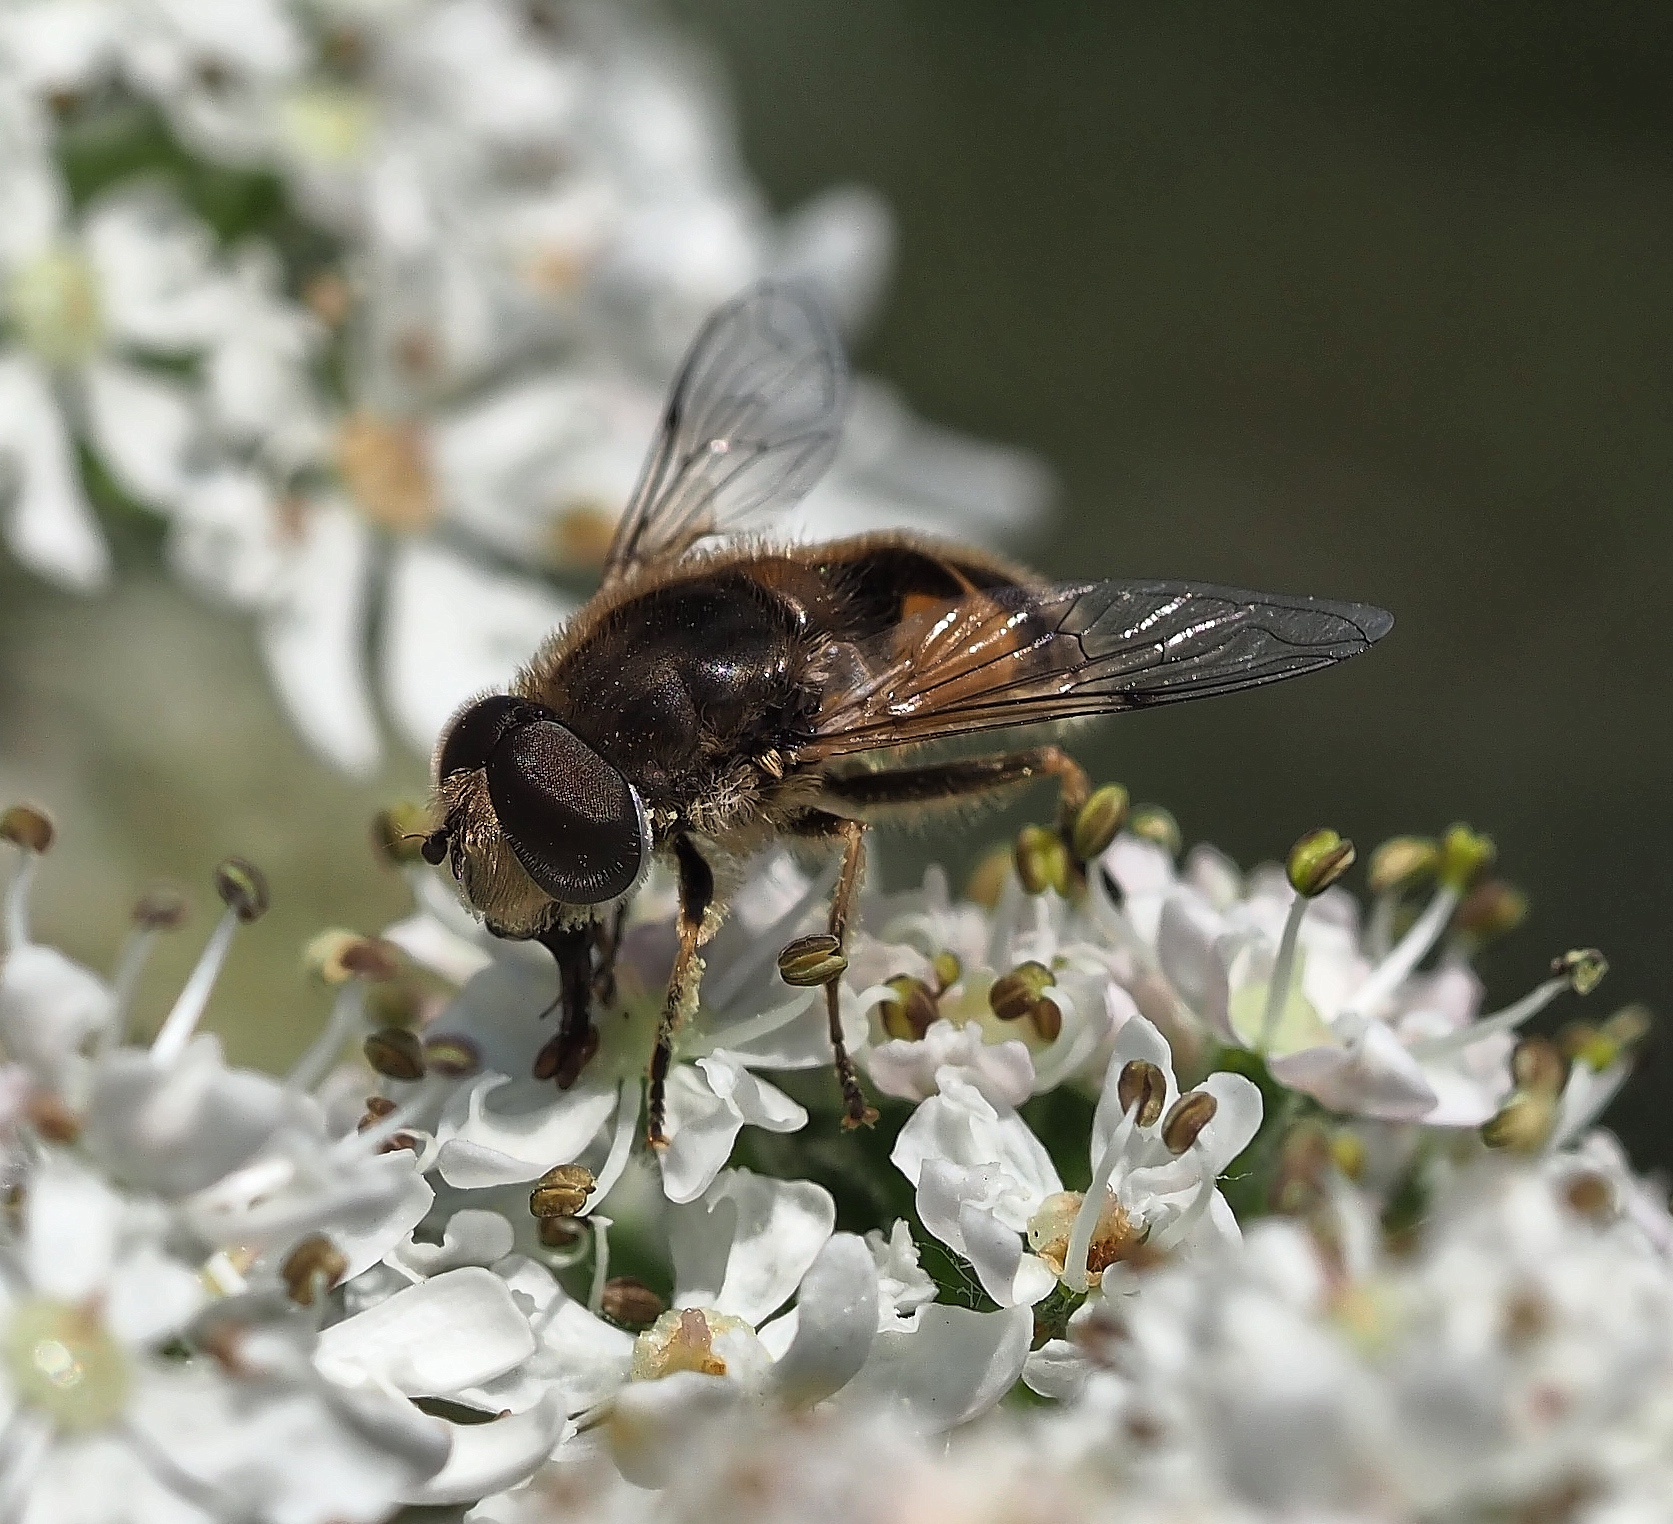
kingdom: Animalia
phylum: Arthropoda
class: Insecta
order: Diptera
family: Syrphidae
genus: Eristalis
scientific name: Eristalis arbustorum
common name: Hover fly
